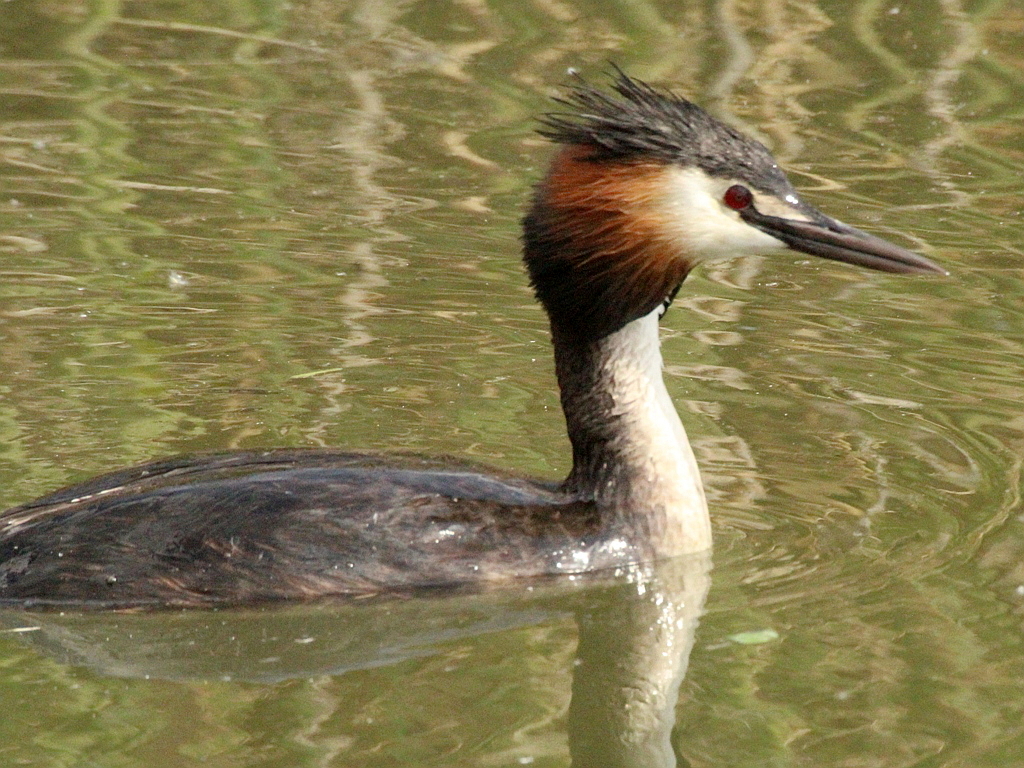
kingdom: Animalia
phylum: Chordata
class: Aves
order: Podicipediformes
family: Podicipedidae
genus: Podiceps
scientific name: Podiceps cristatus
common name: Great crested grebe
